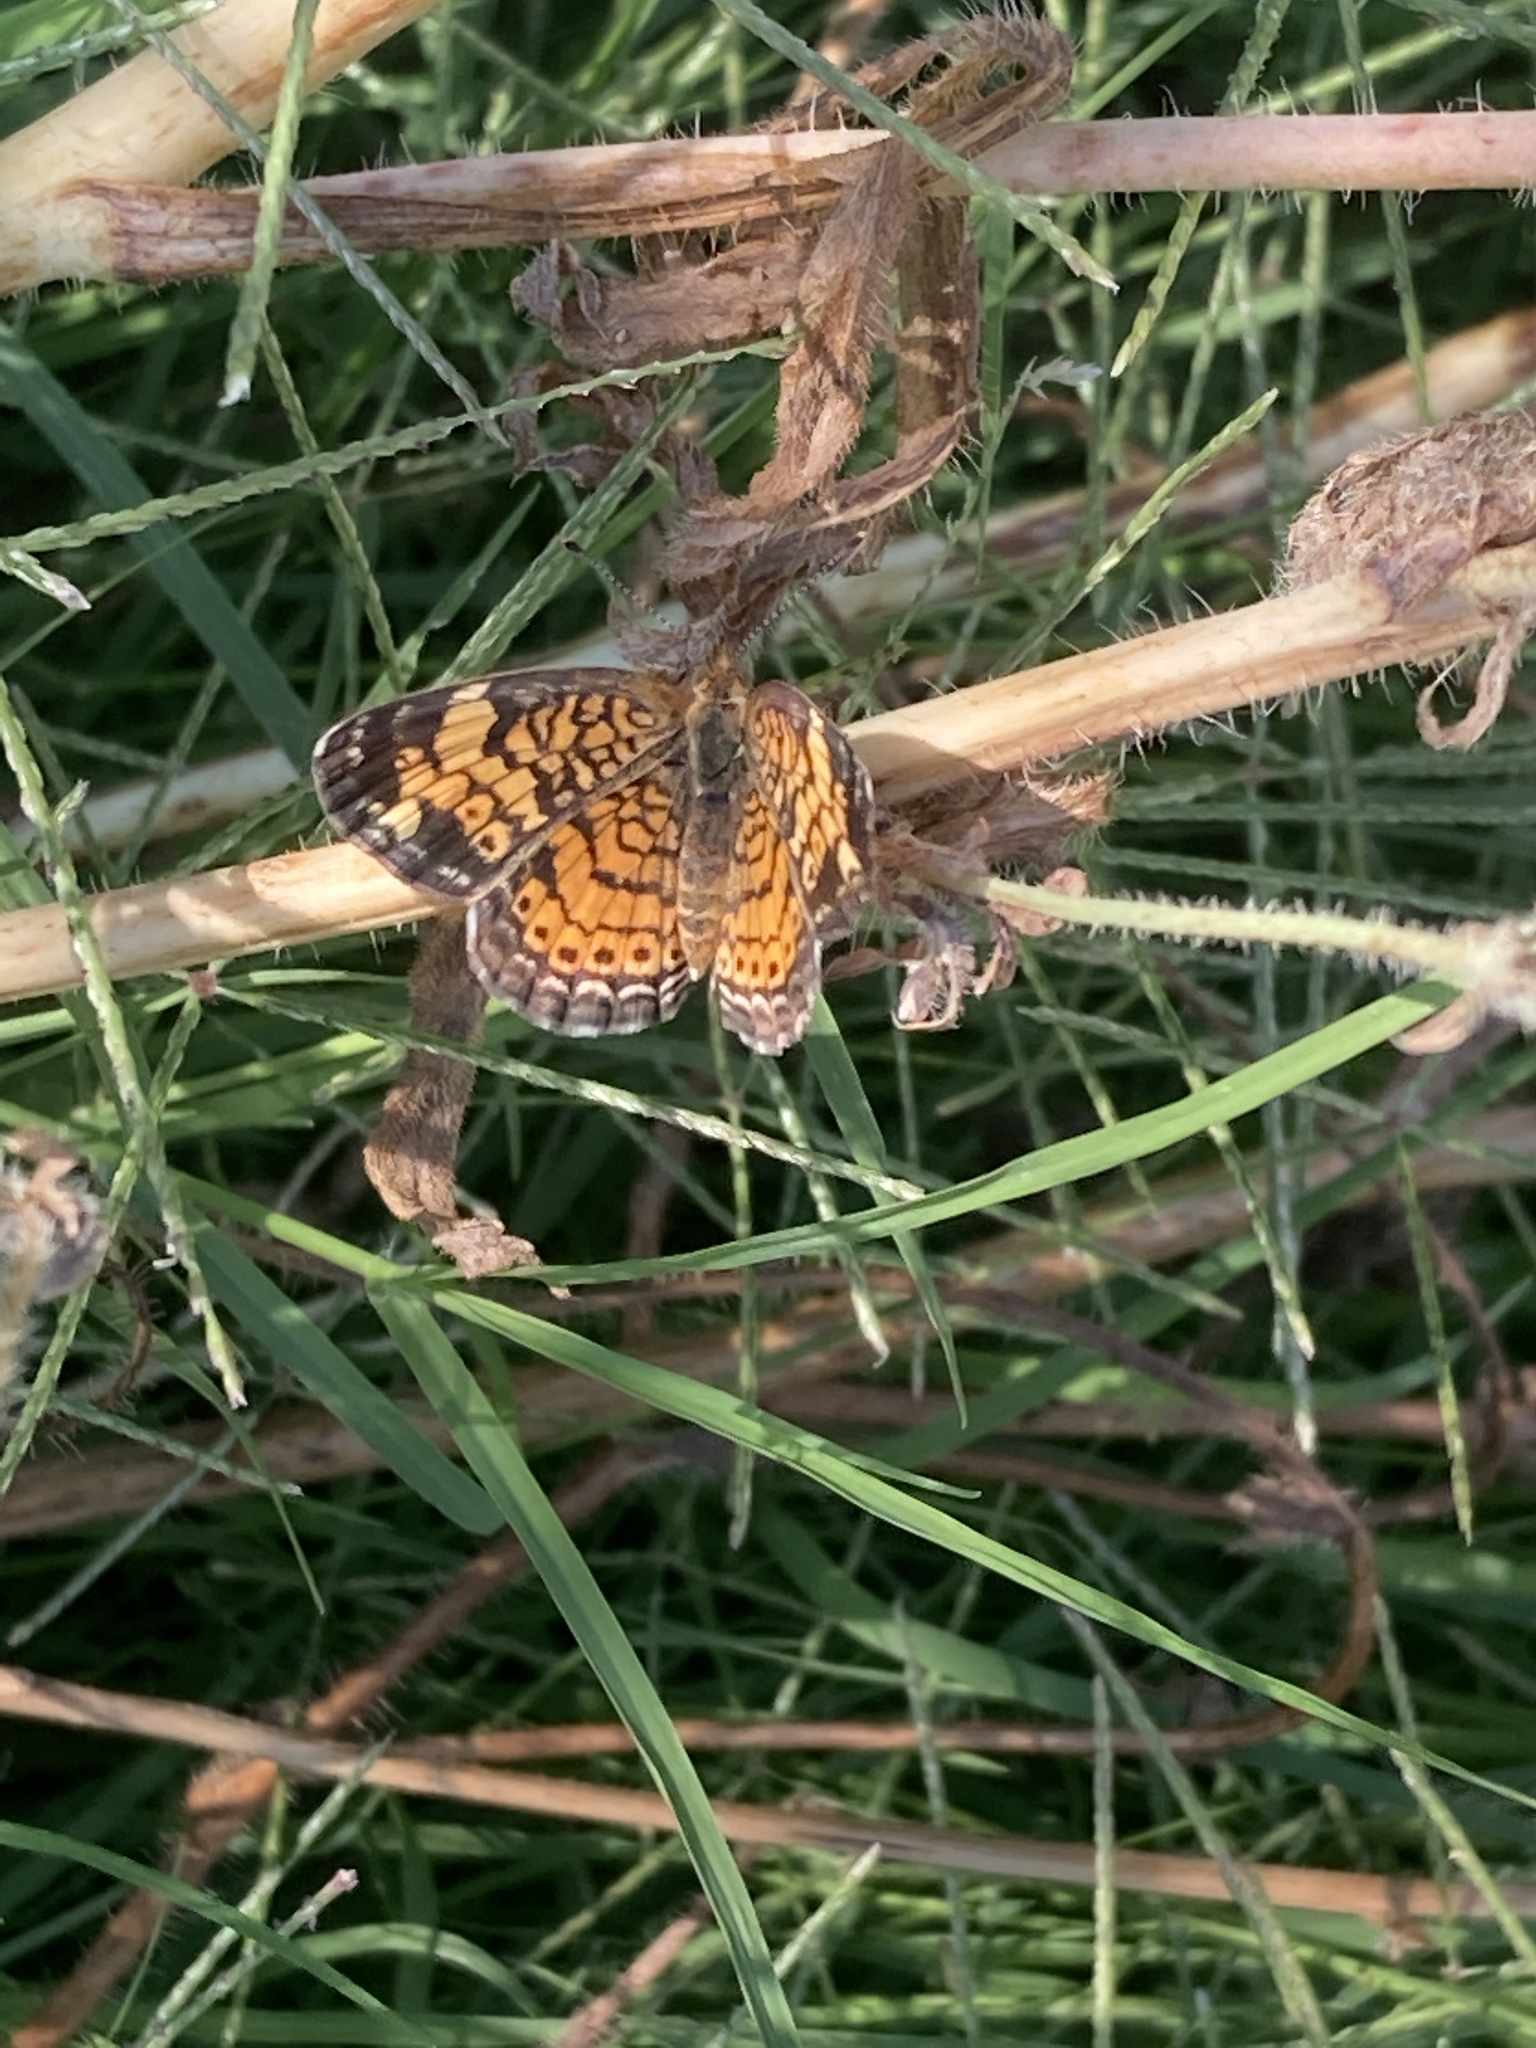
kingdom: Animalia
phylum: Arthropoda
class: Insecta
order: Lepidoptera
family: Nymphalidae
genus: Phyciodes
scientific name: Phyciodes tharos
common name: Pearl crescent
